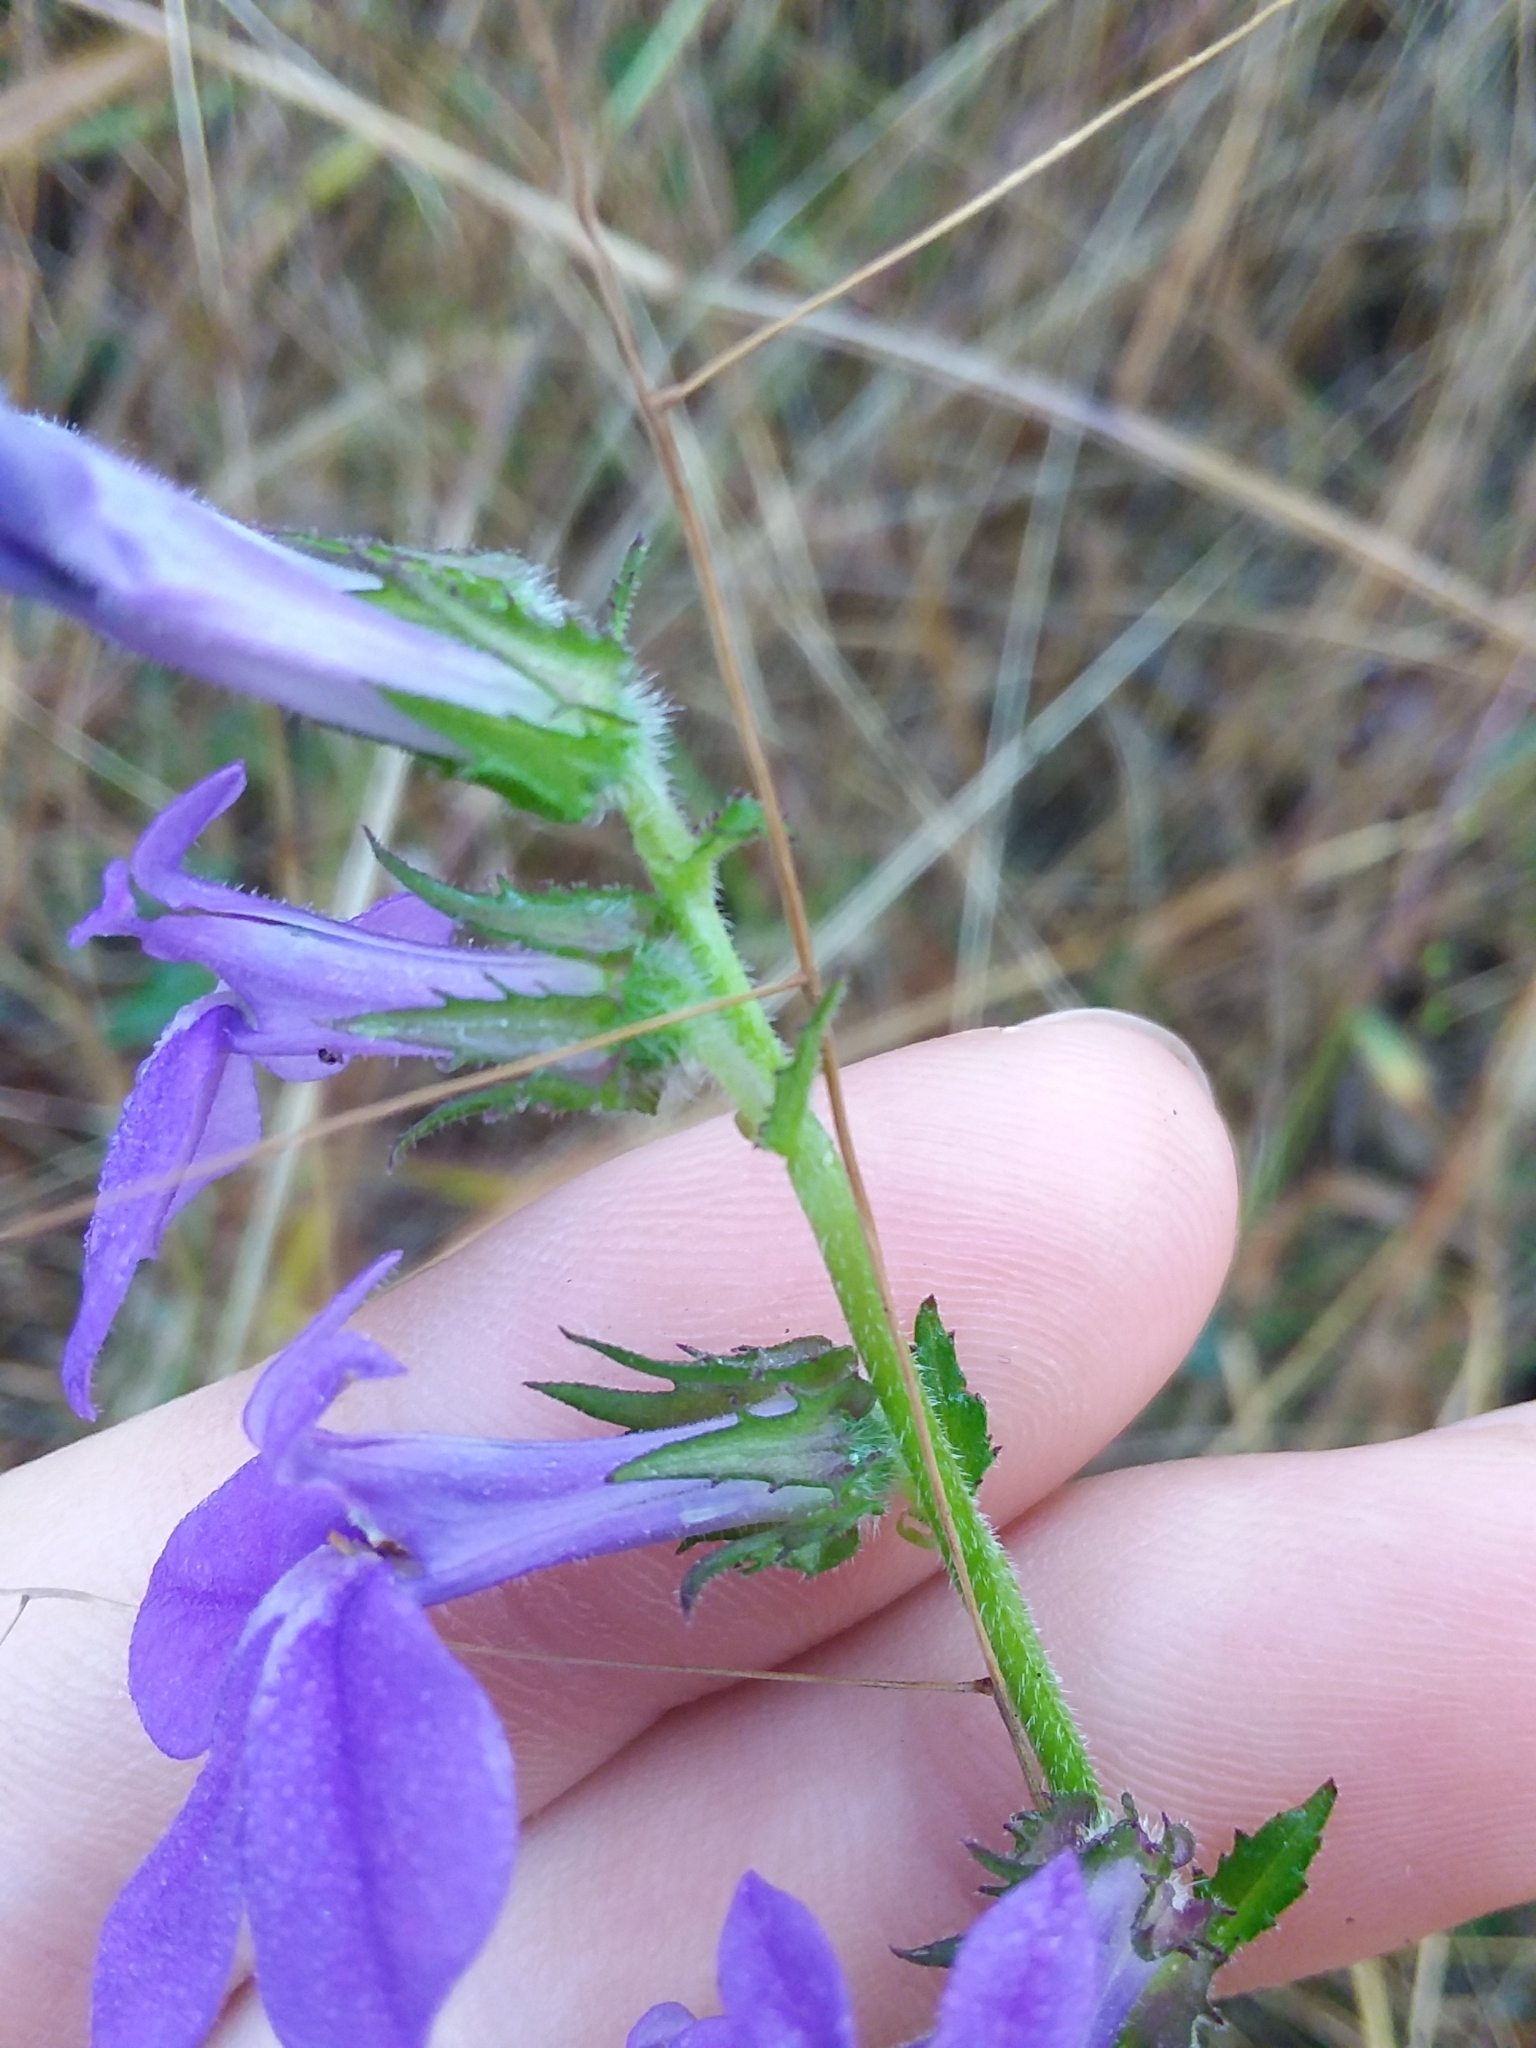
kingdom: Plantae
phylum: Tracheophyta
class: Magnoliopsida
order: Asterales
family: Campanulaceae
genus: Lobelia
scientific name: Lobelia rogersii
